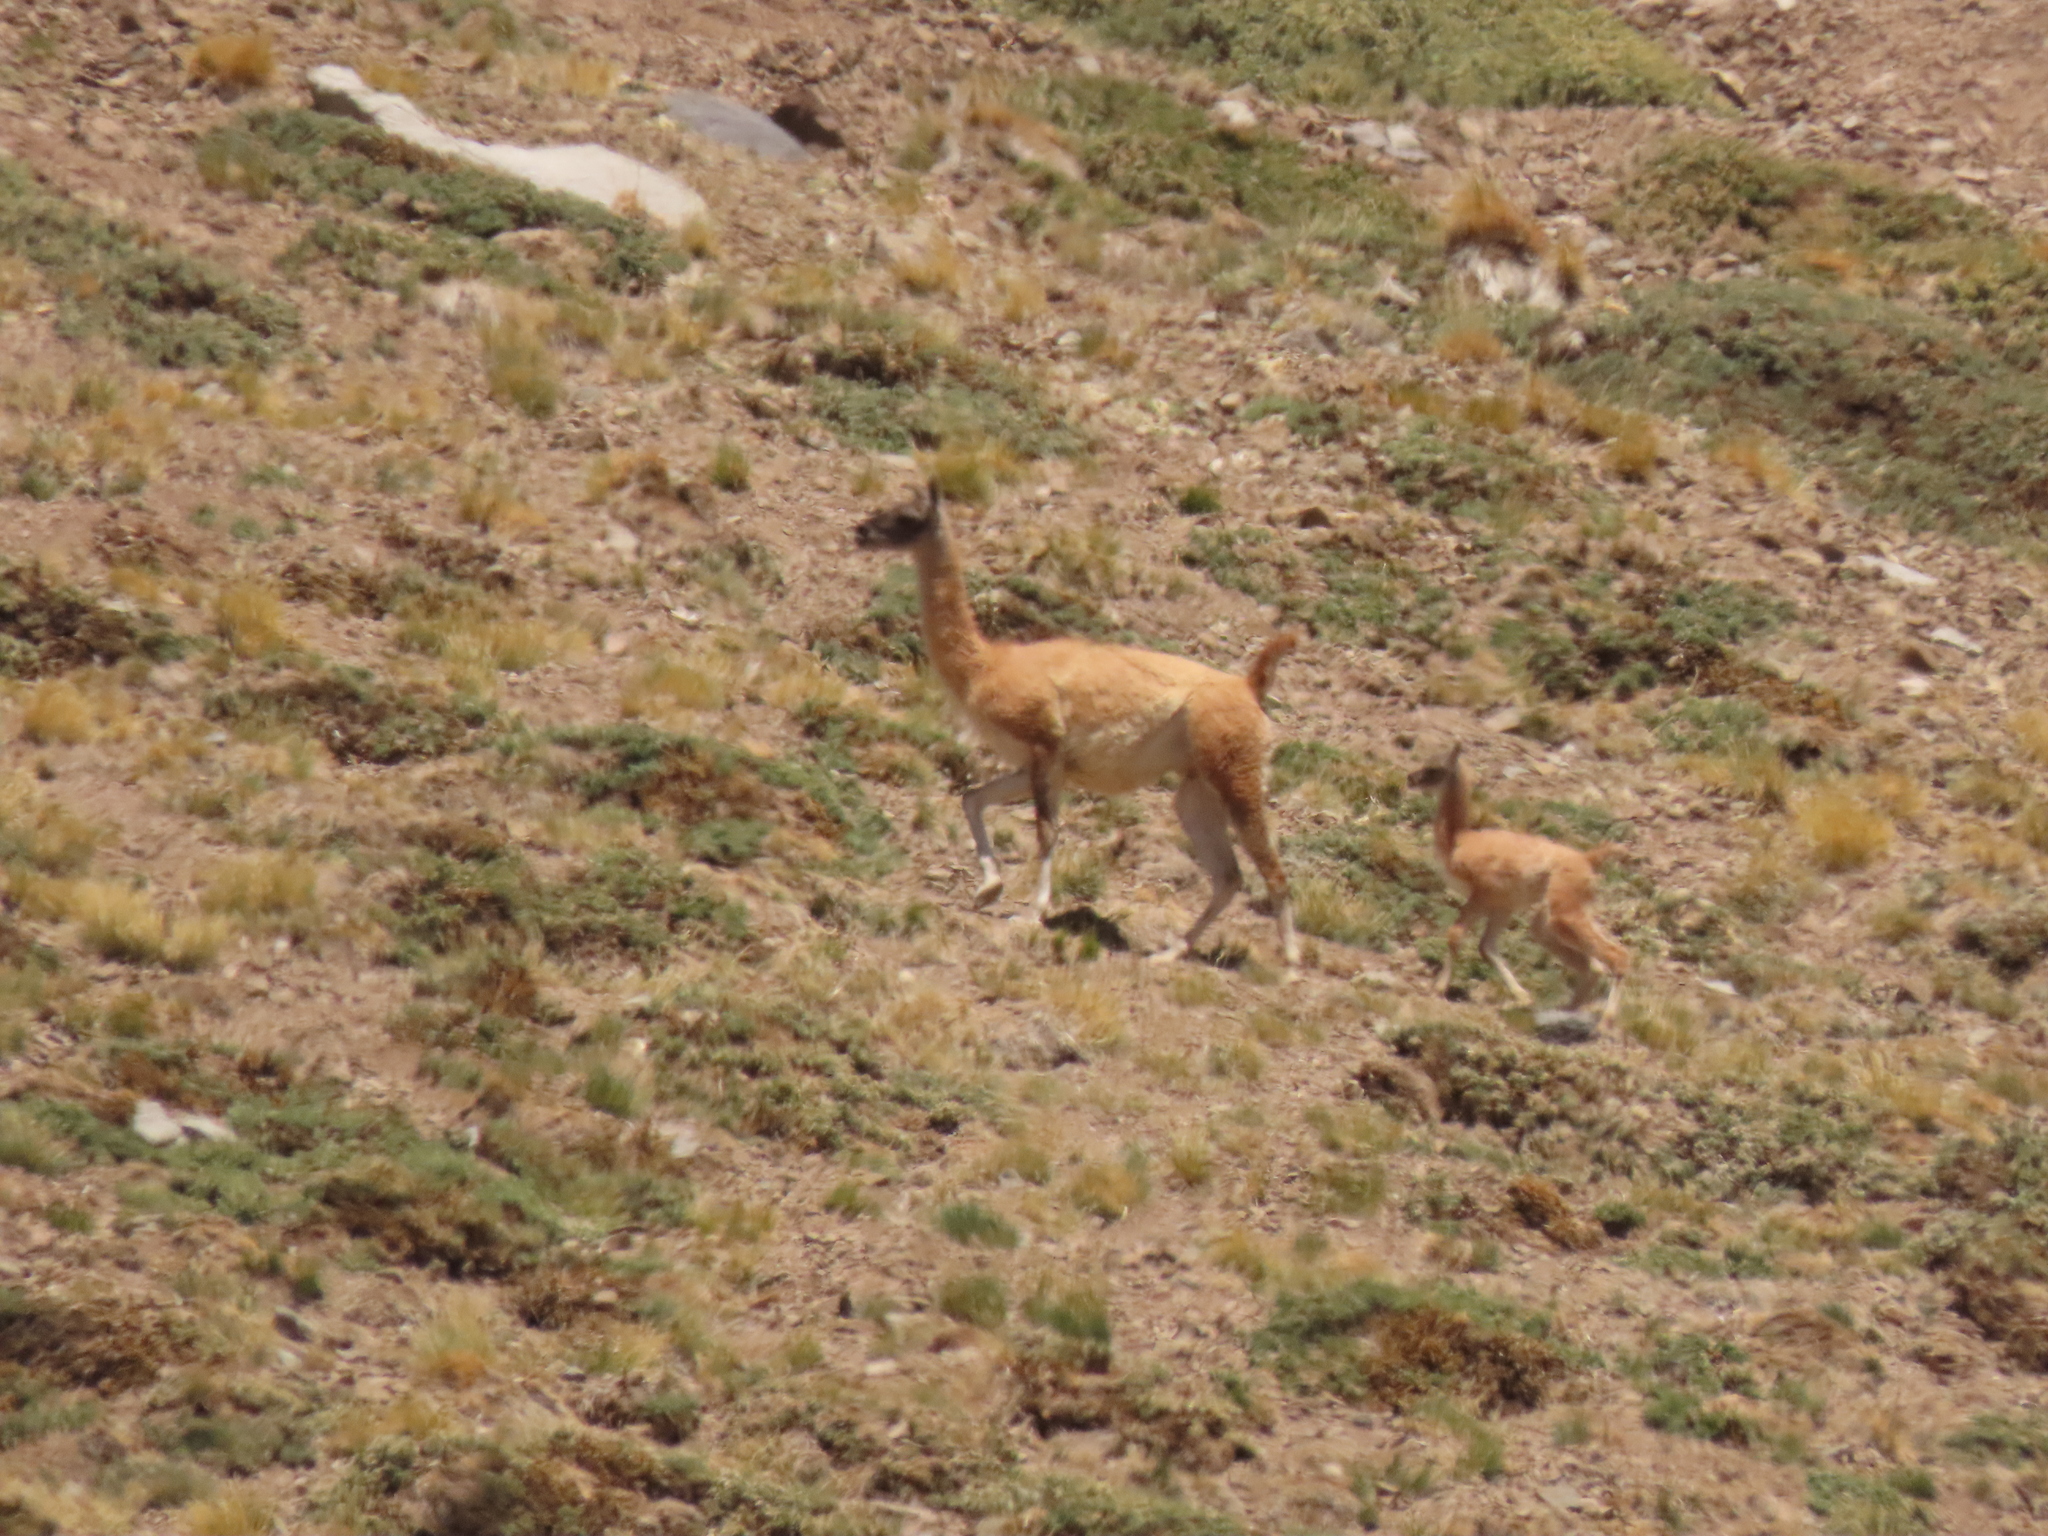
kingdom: Animalia
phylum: Chordata
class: Mammalia
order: Artiodactyla
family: Camelidae
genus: Lama
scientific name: Lama glama
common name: Llama
